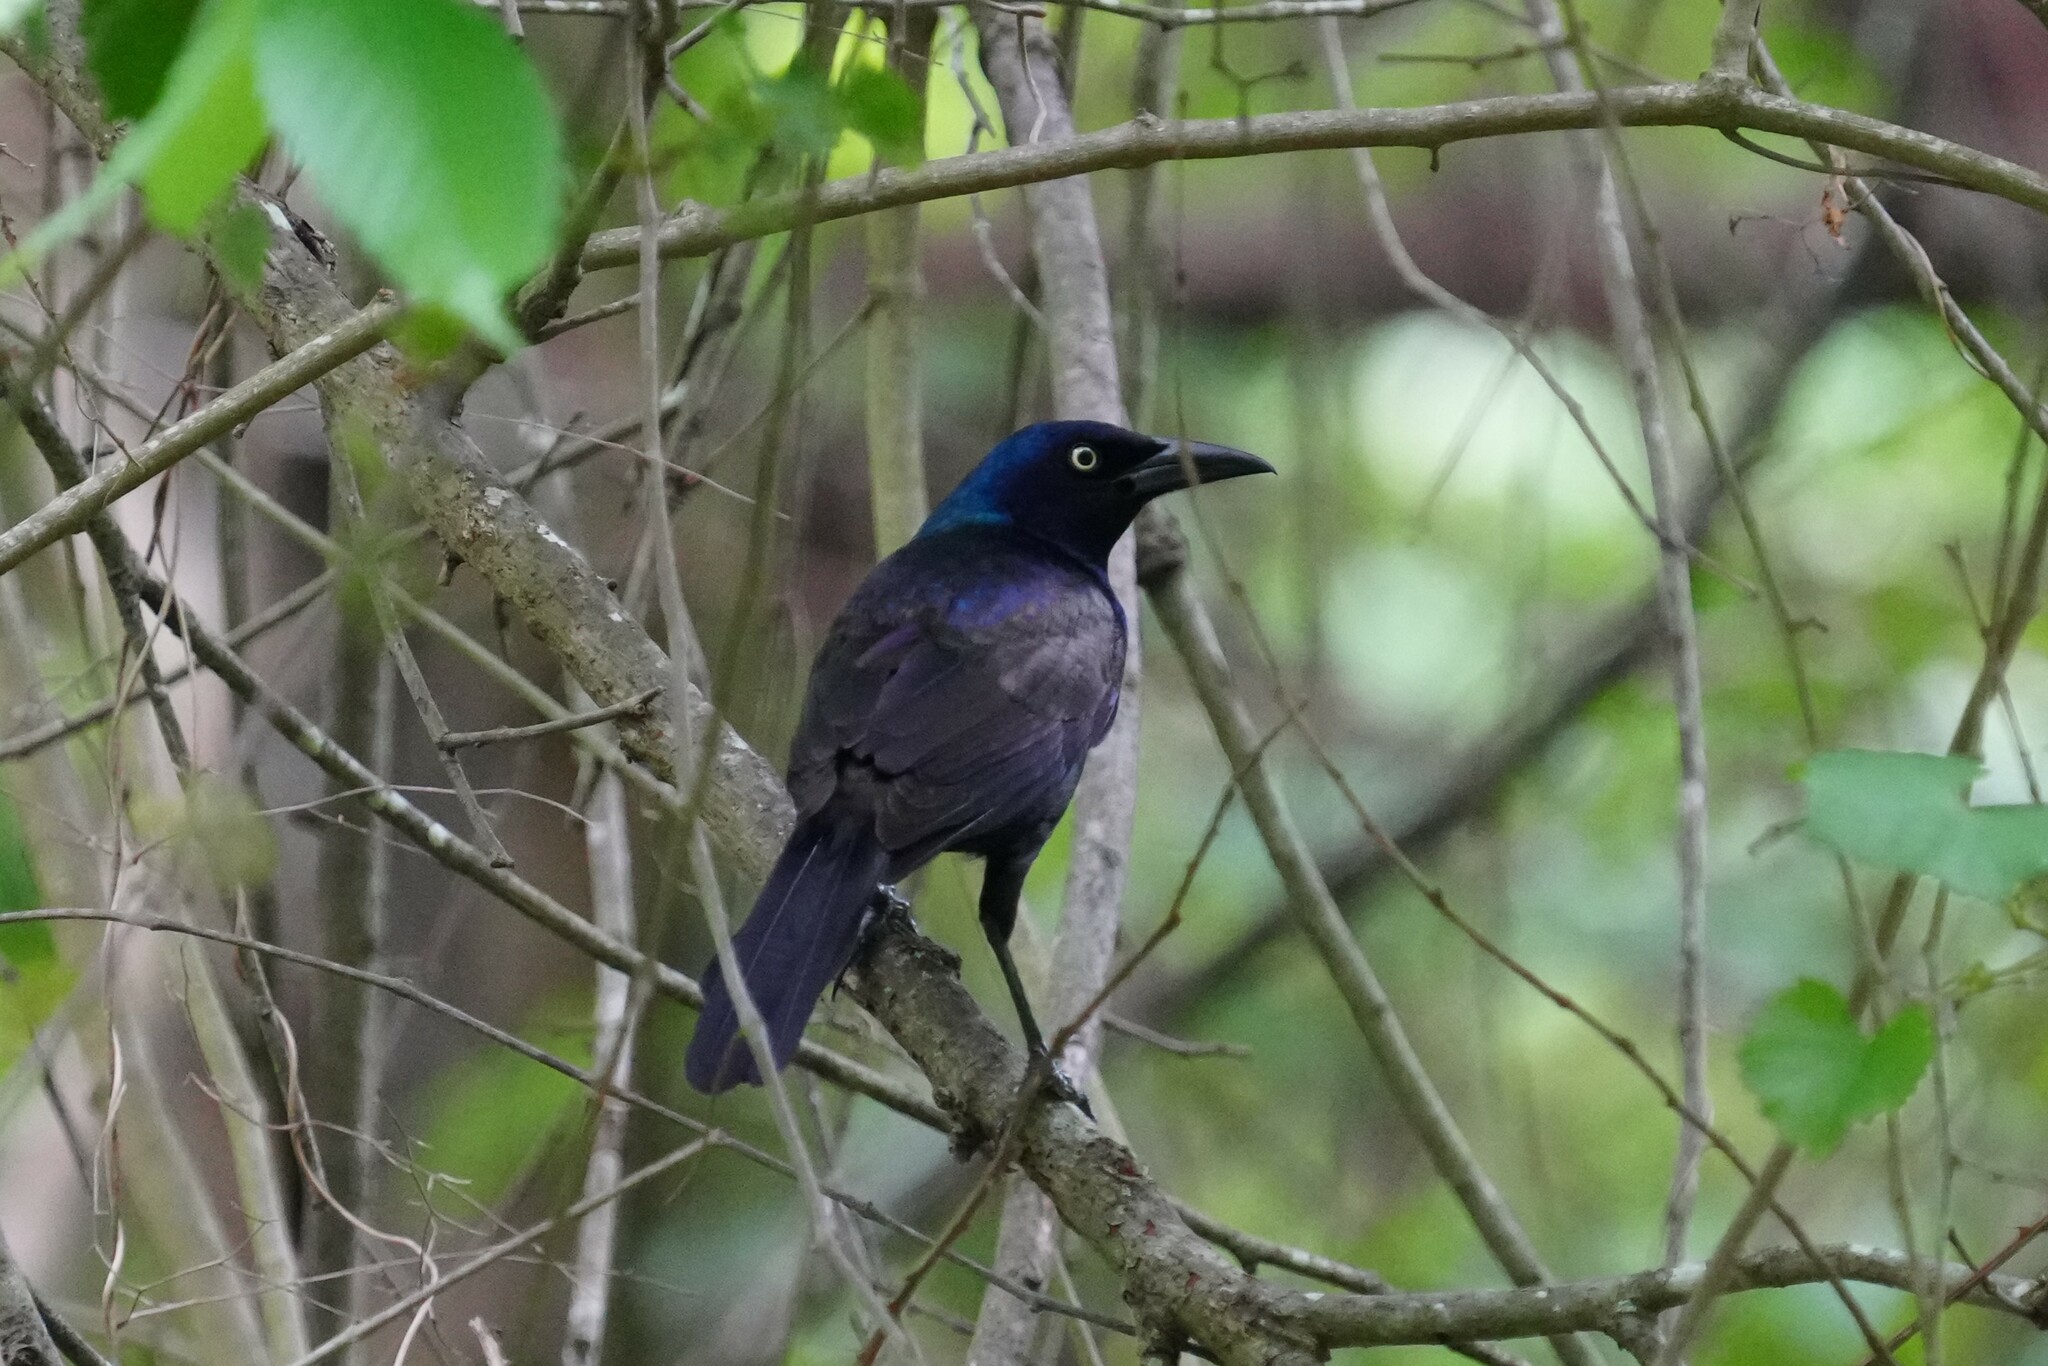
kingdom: Animalia
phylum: Chordata
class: Aves
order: Passeriformes
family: Icteridae
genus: Quiscalus
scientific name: Quiscalus quiscula
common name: Common grackle
